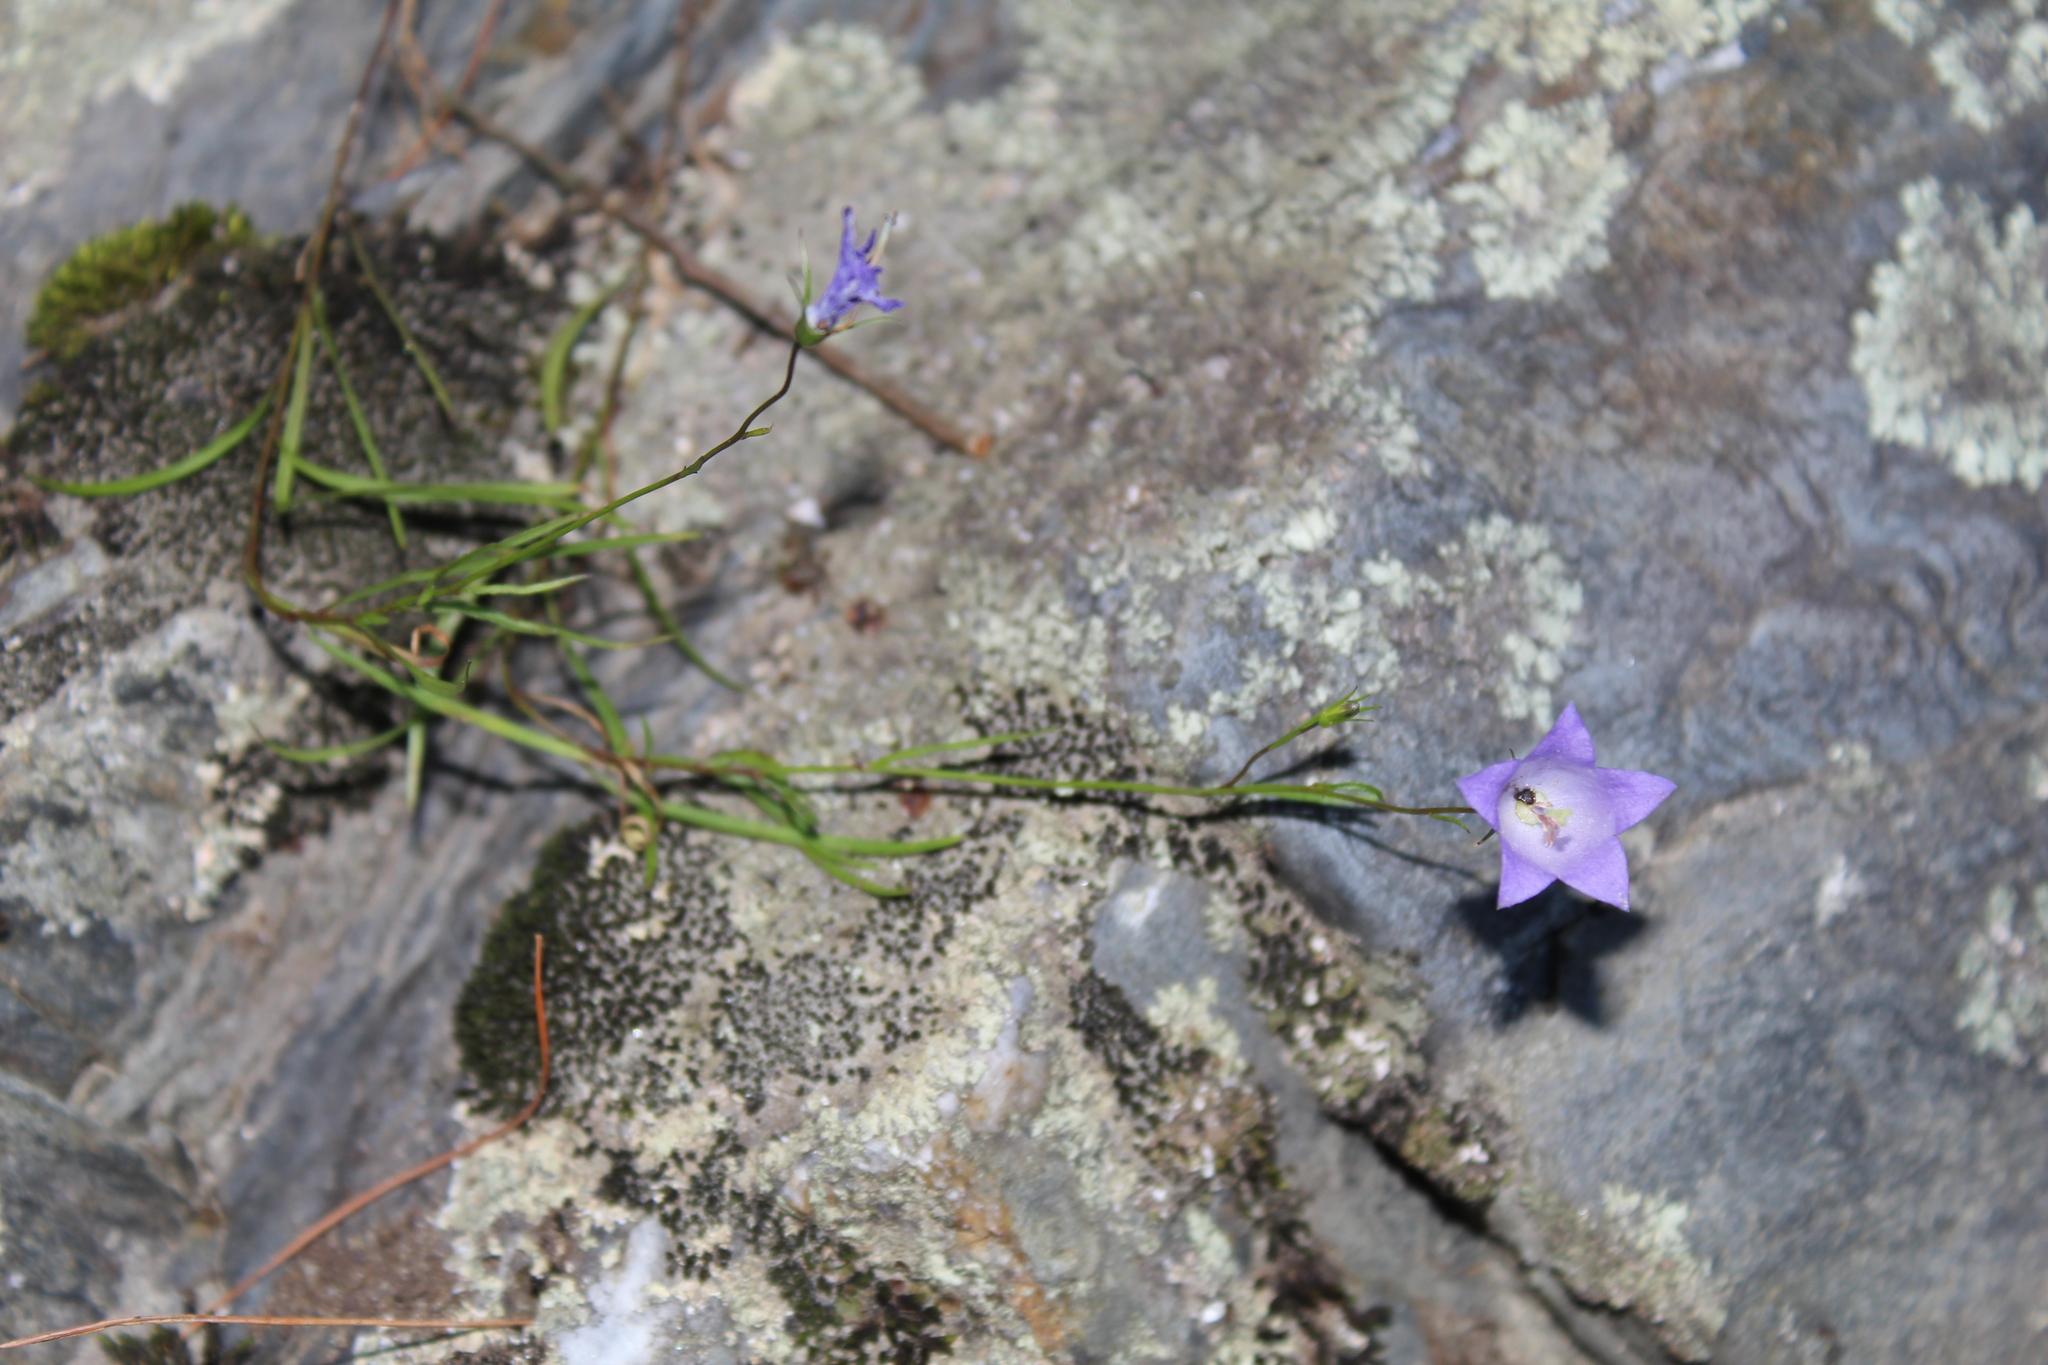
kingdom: Plantae
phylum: Tracheophyta
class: Magnoliopsida
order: Asterales
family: Campanulaceae
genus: Campanula
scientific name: Campanula intercedens
